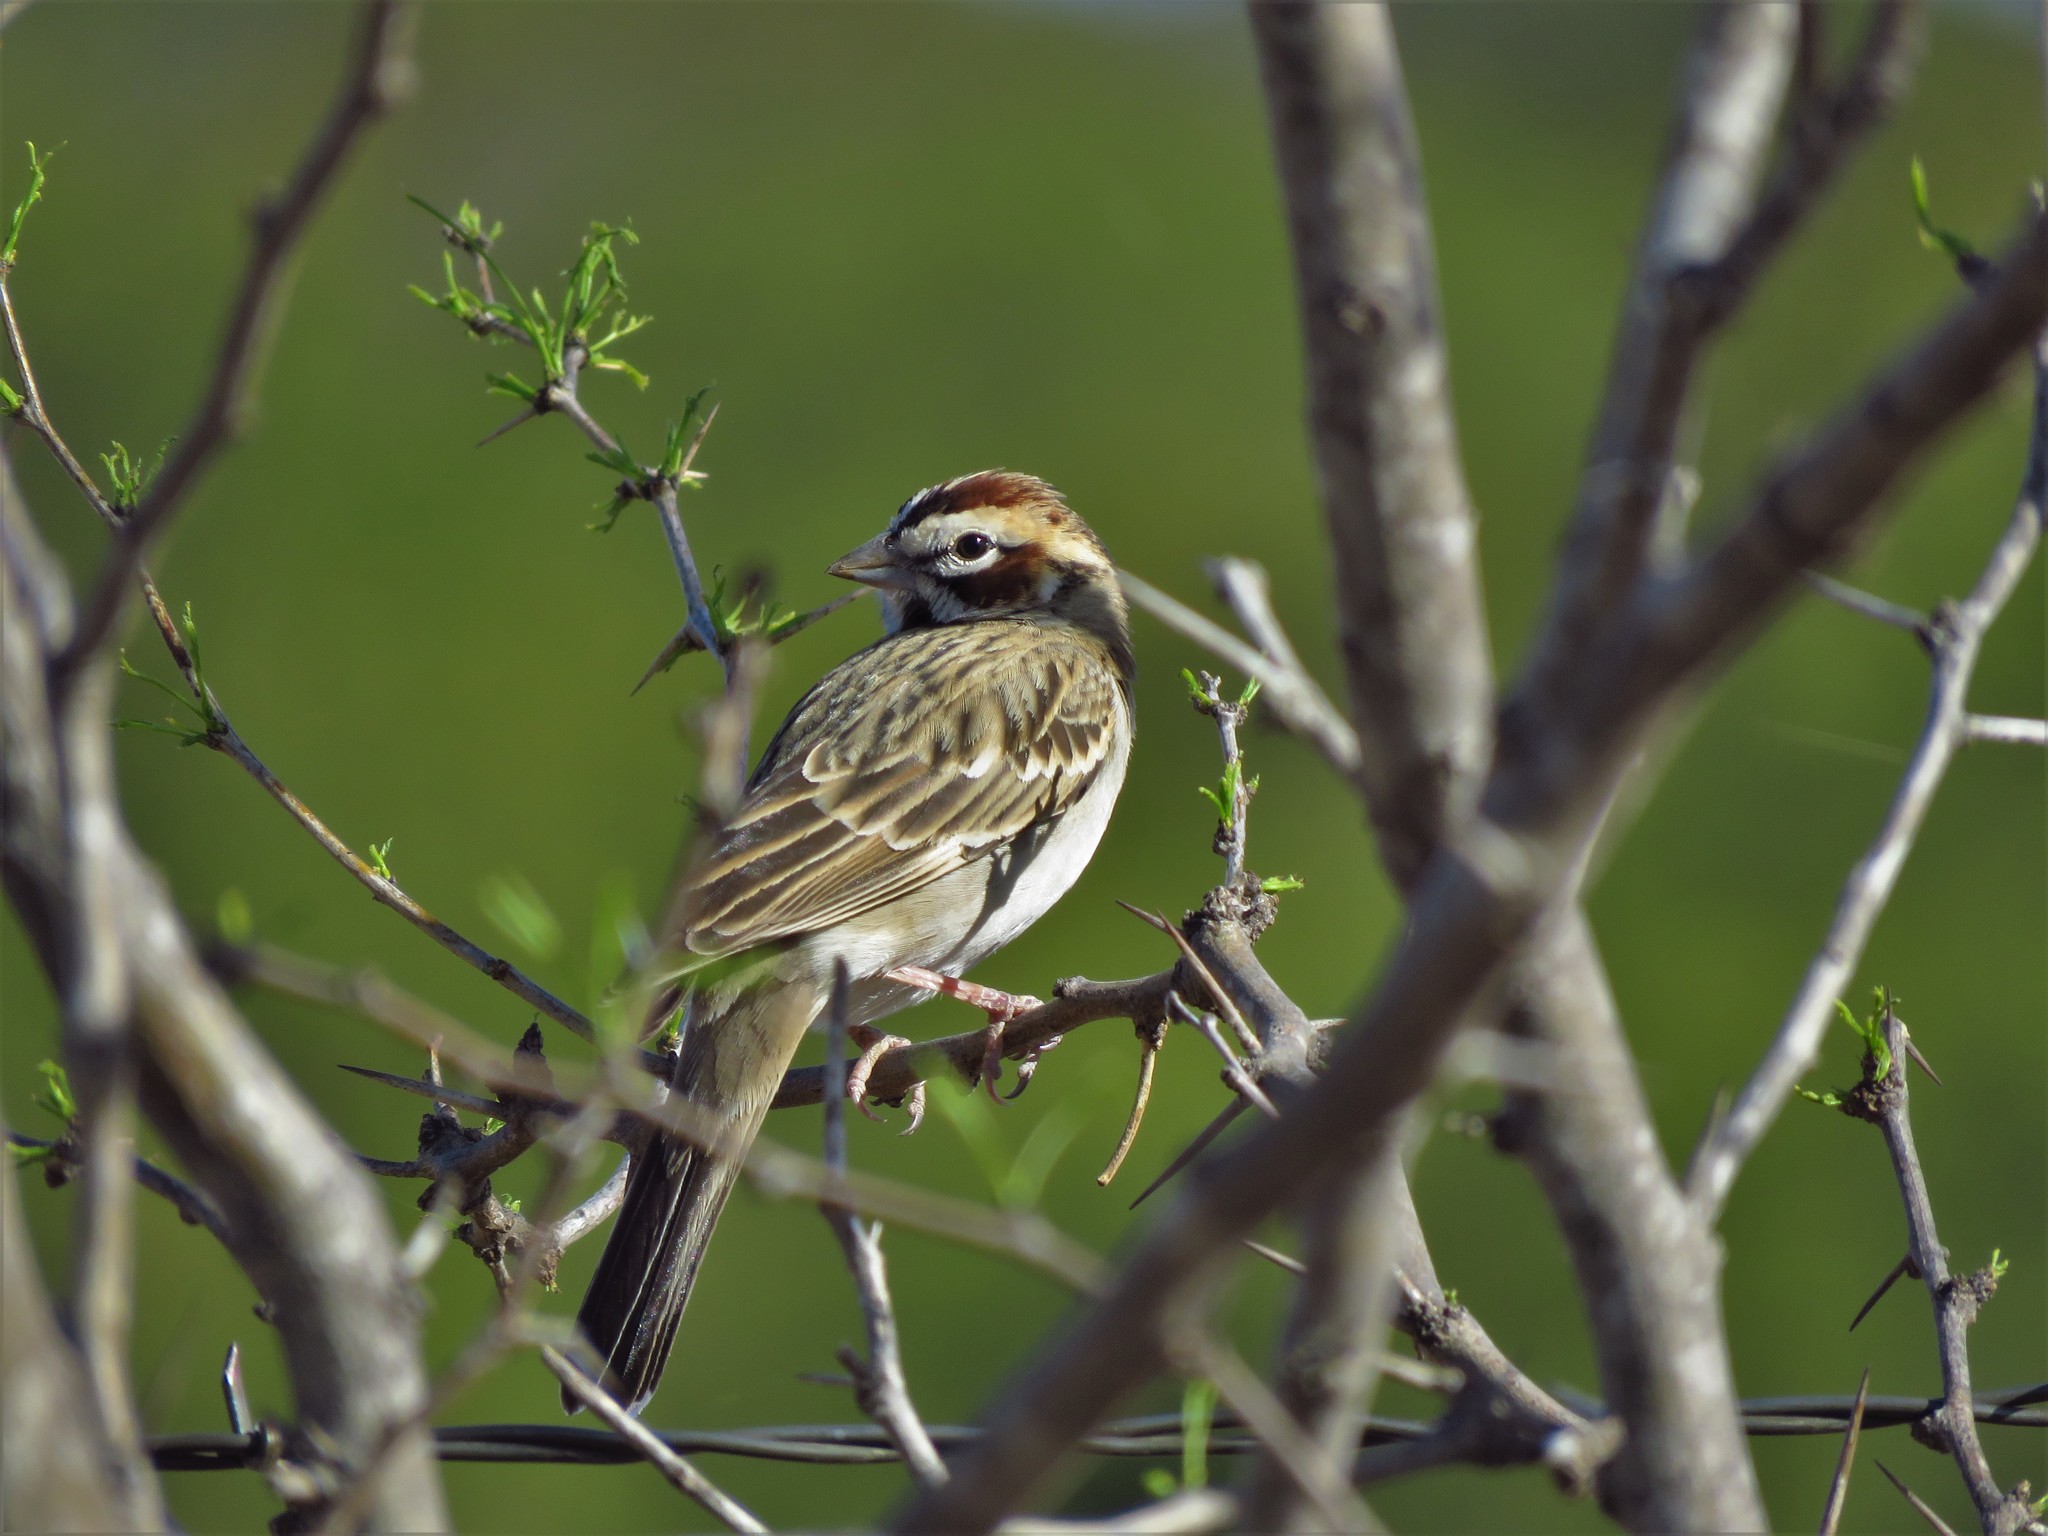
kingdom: Animalia
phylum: Chordata
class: Aves
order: Passeriformes
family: Passerellidae
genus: Chondestes
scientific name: Chondestes grammacus
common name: Lark sparrow
